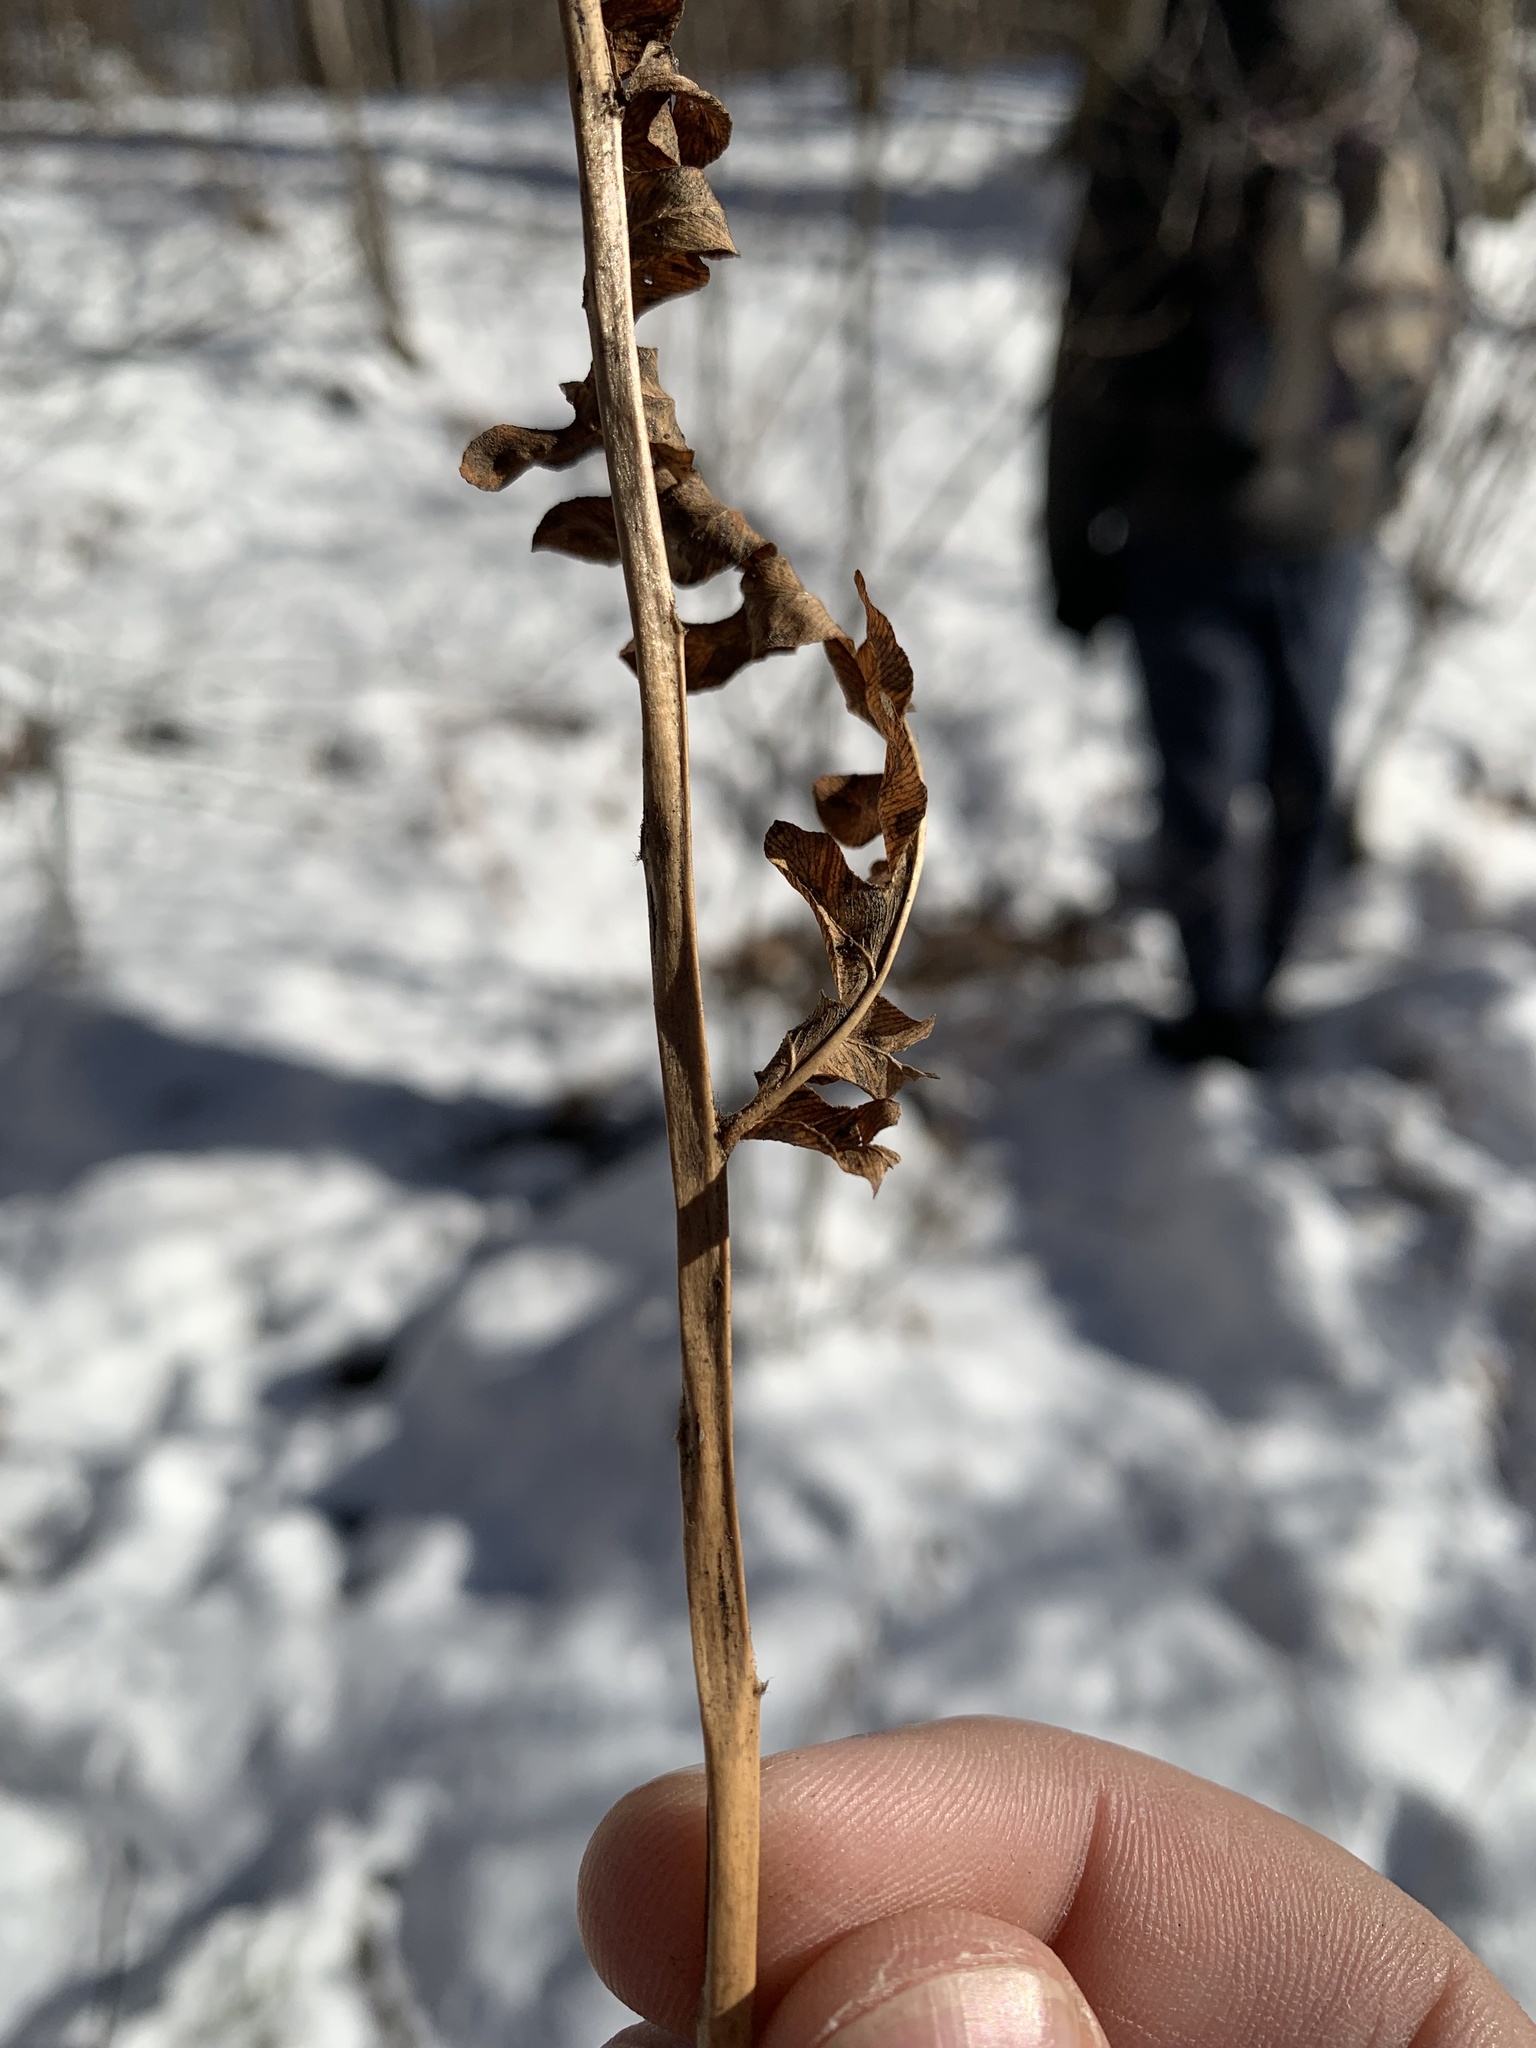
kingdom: Plantae
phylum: Tracheophyta
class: Polypodiopsida
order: Osmundales
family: Osmundaceae
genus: Osmundastrum
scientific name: Osmundastrum cinnamomeum
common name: Cinnamon fern
